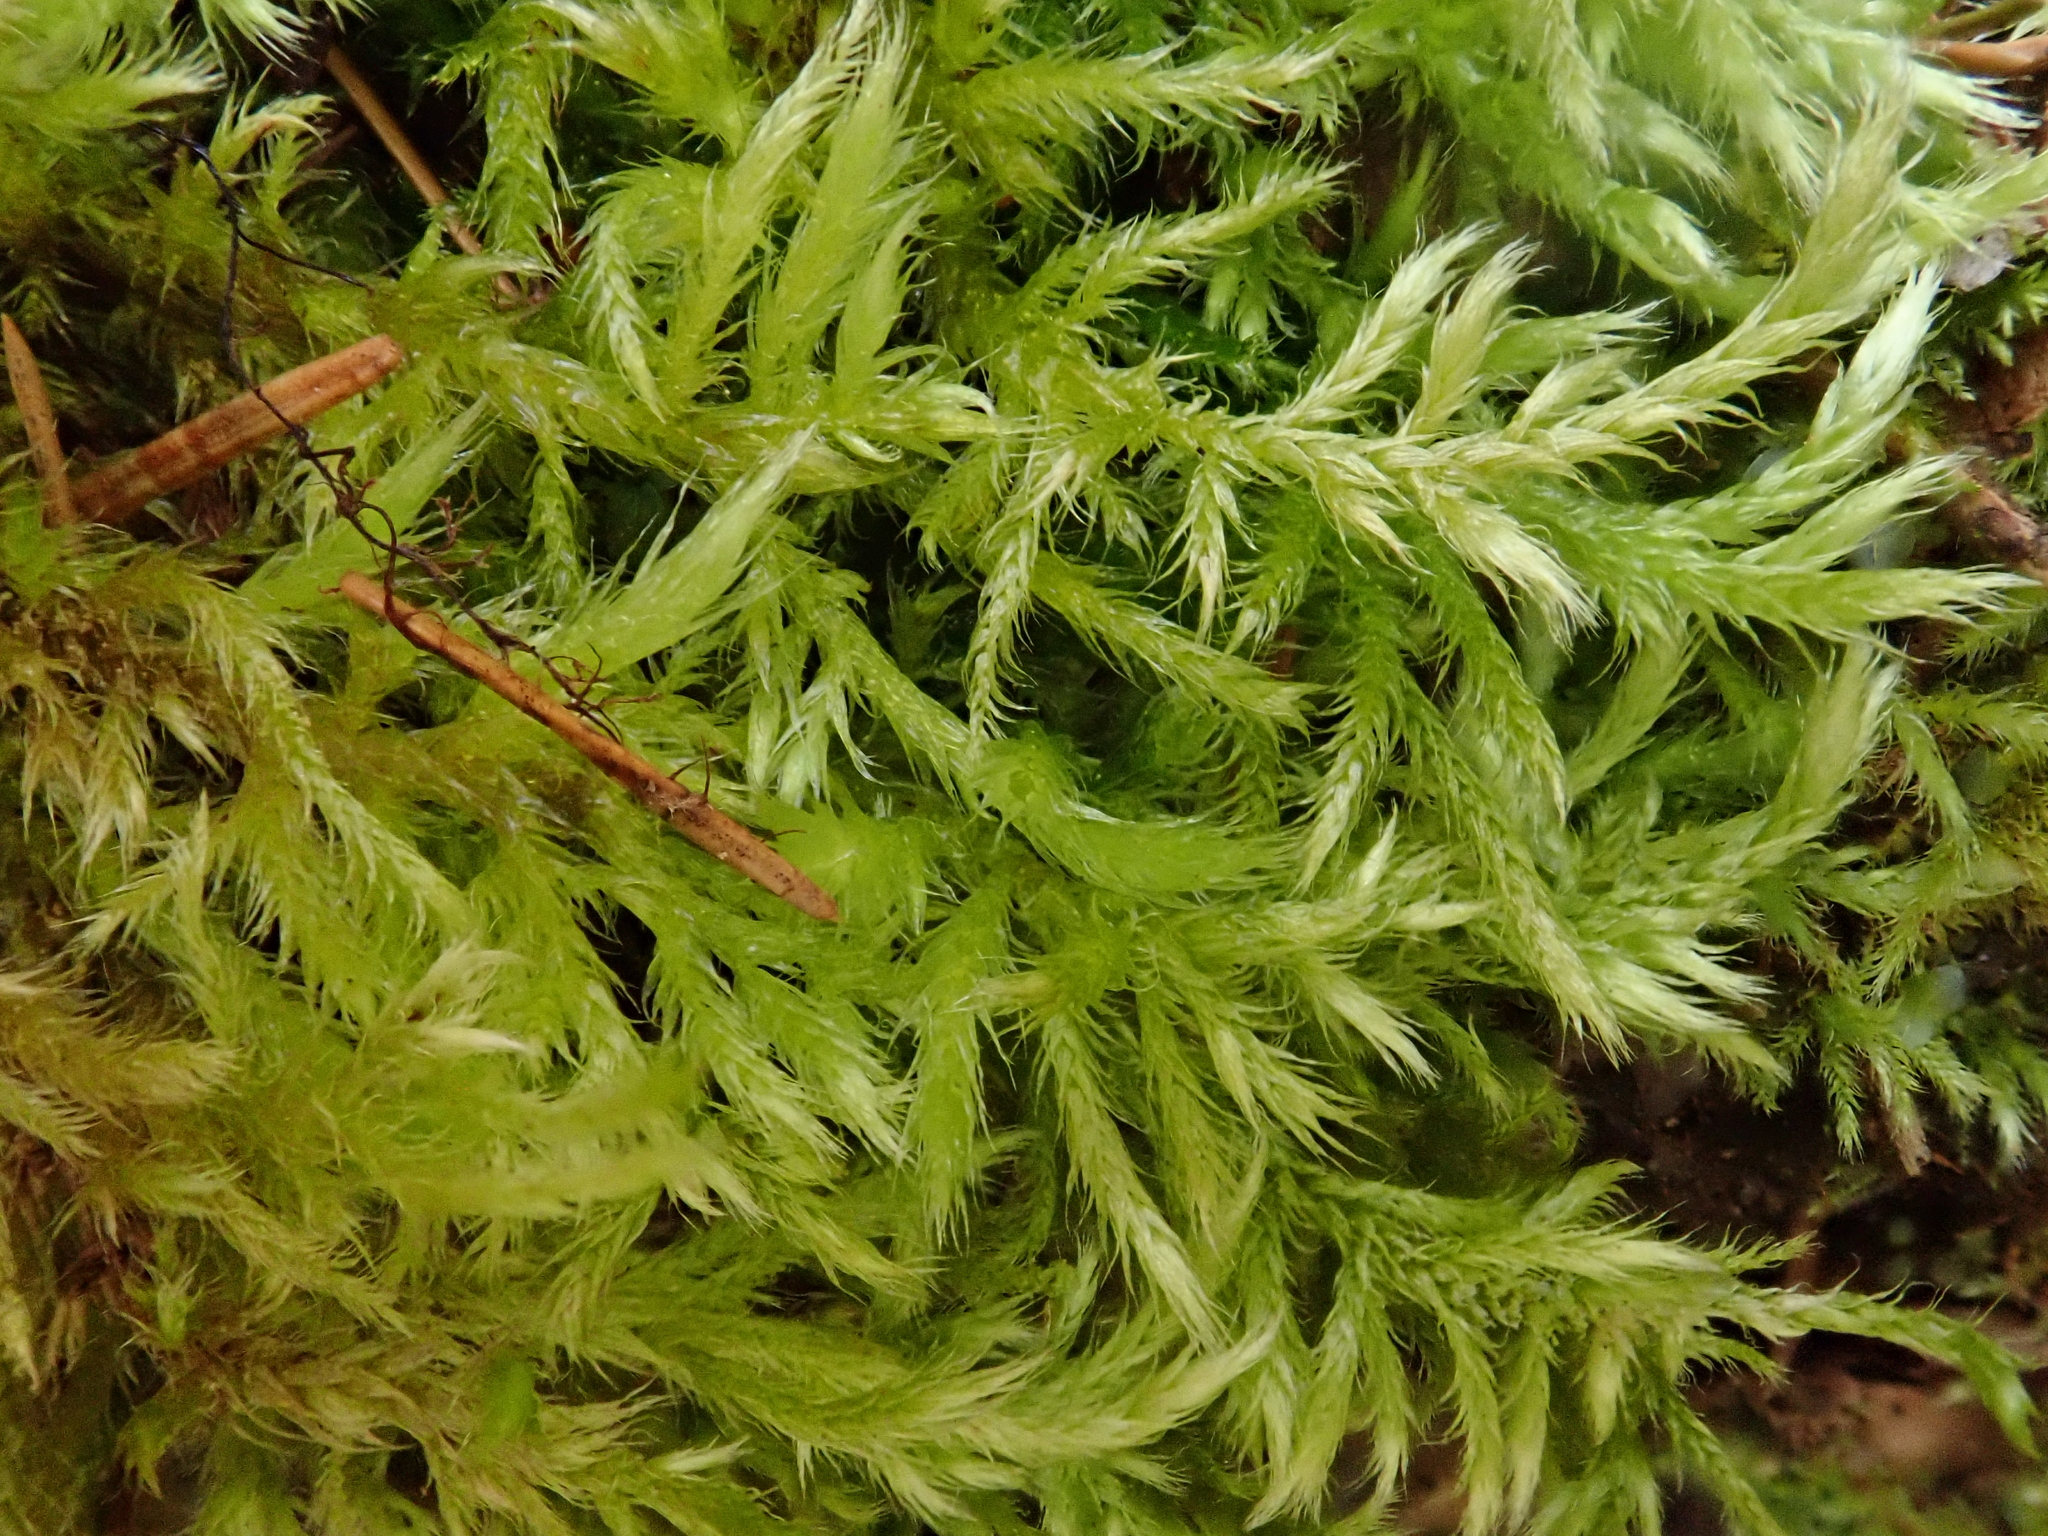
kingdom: Plantae
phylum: Bryophyta
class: Bryopsida
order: Hypnales
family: Brachytheciaceae
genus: Brachythecium
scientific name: Brachythecium glareosum
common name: Streaky feather-moss
